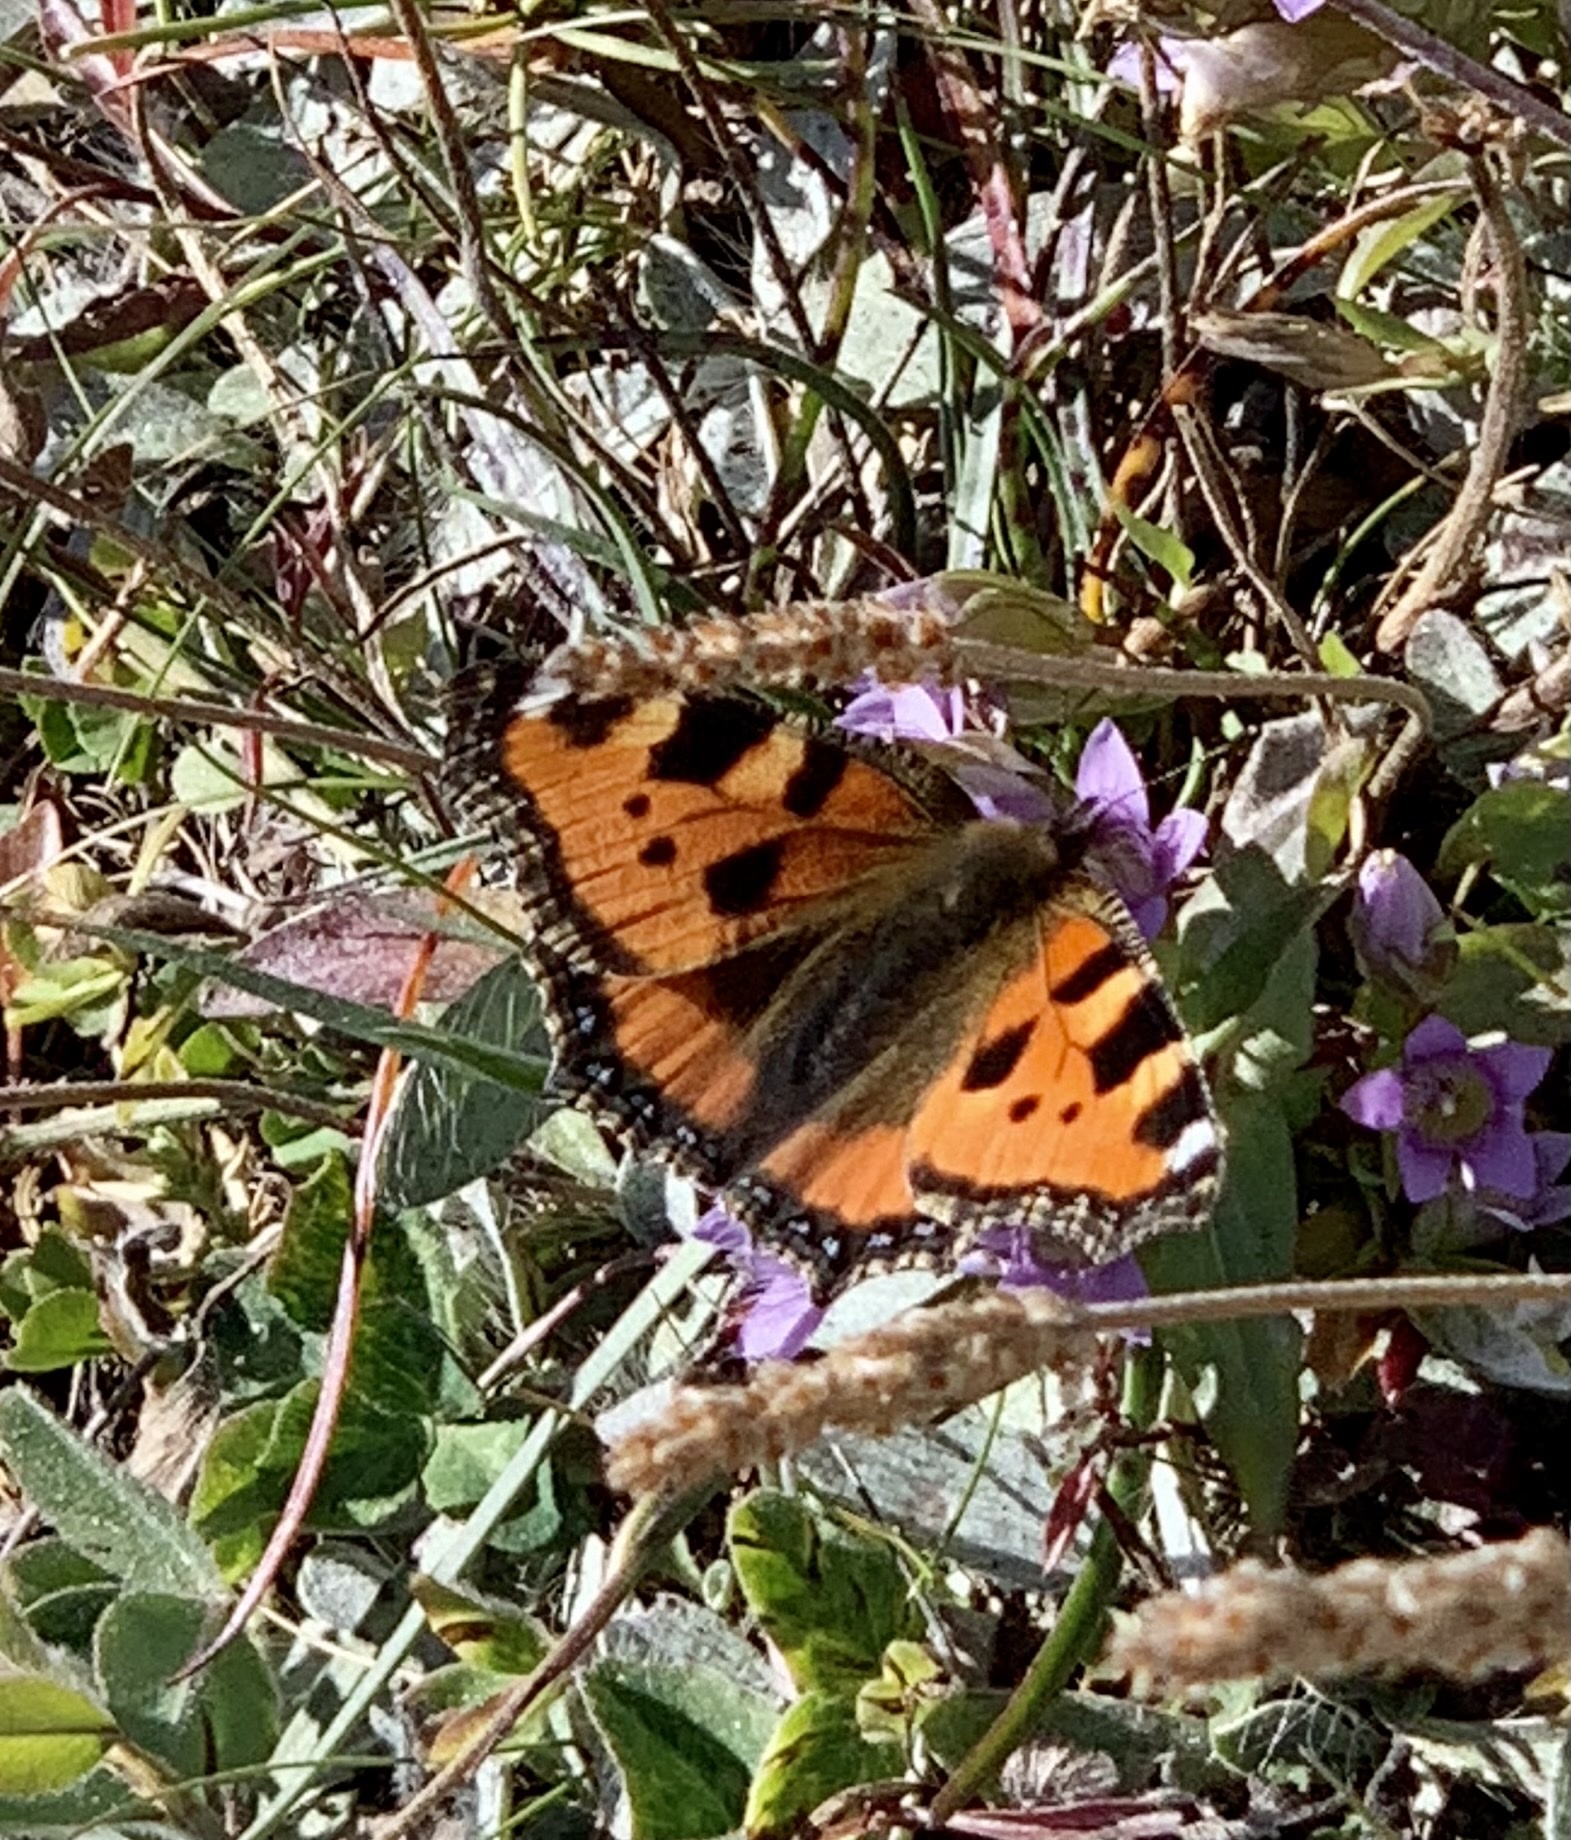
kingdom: Animalia
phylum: Arthropoda
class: Insecta
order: Lepidoptera
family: Nymphalidae
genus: Aglais
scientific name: Aglais urticae
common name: Small tortoiseshell
